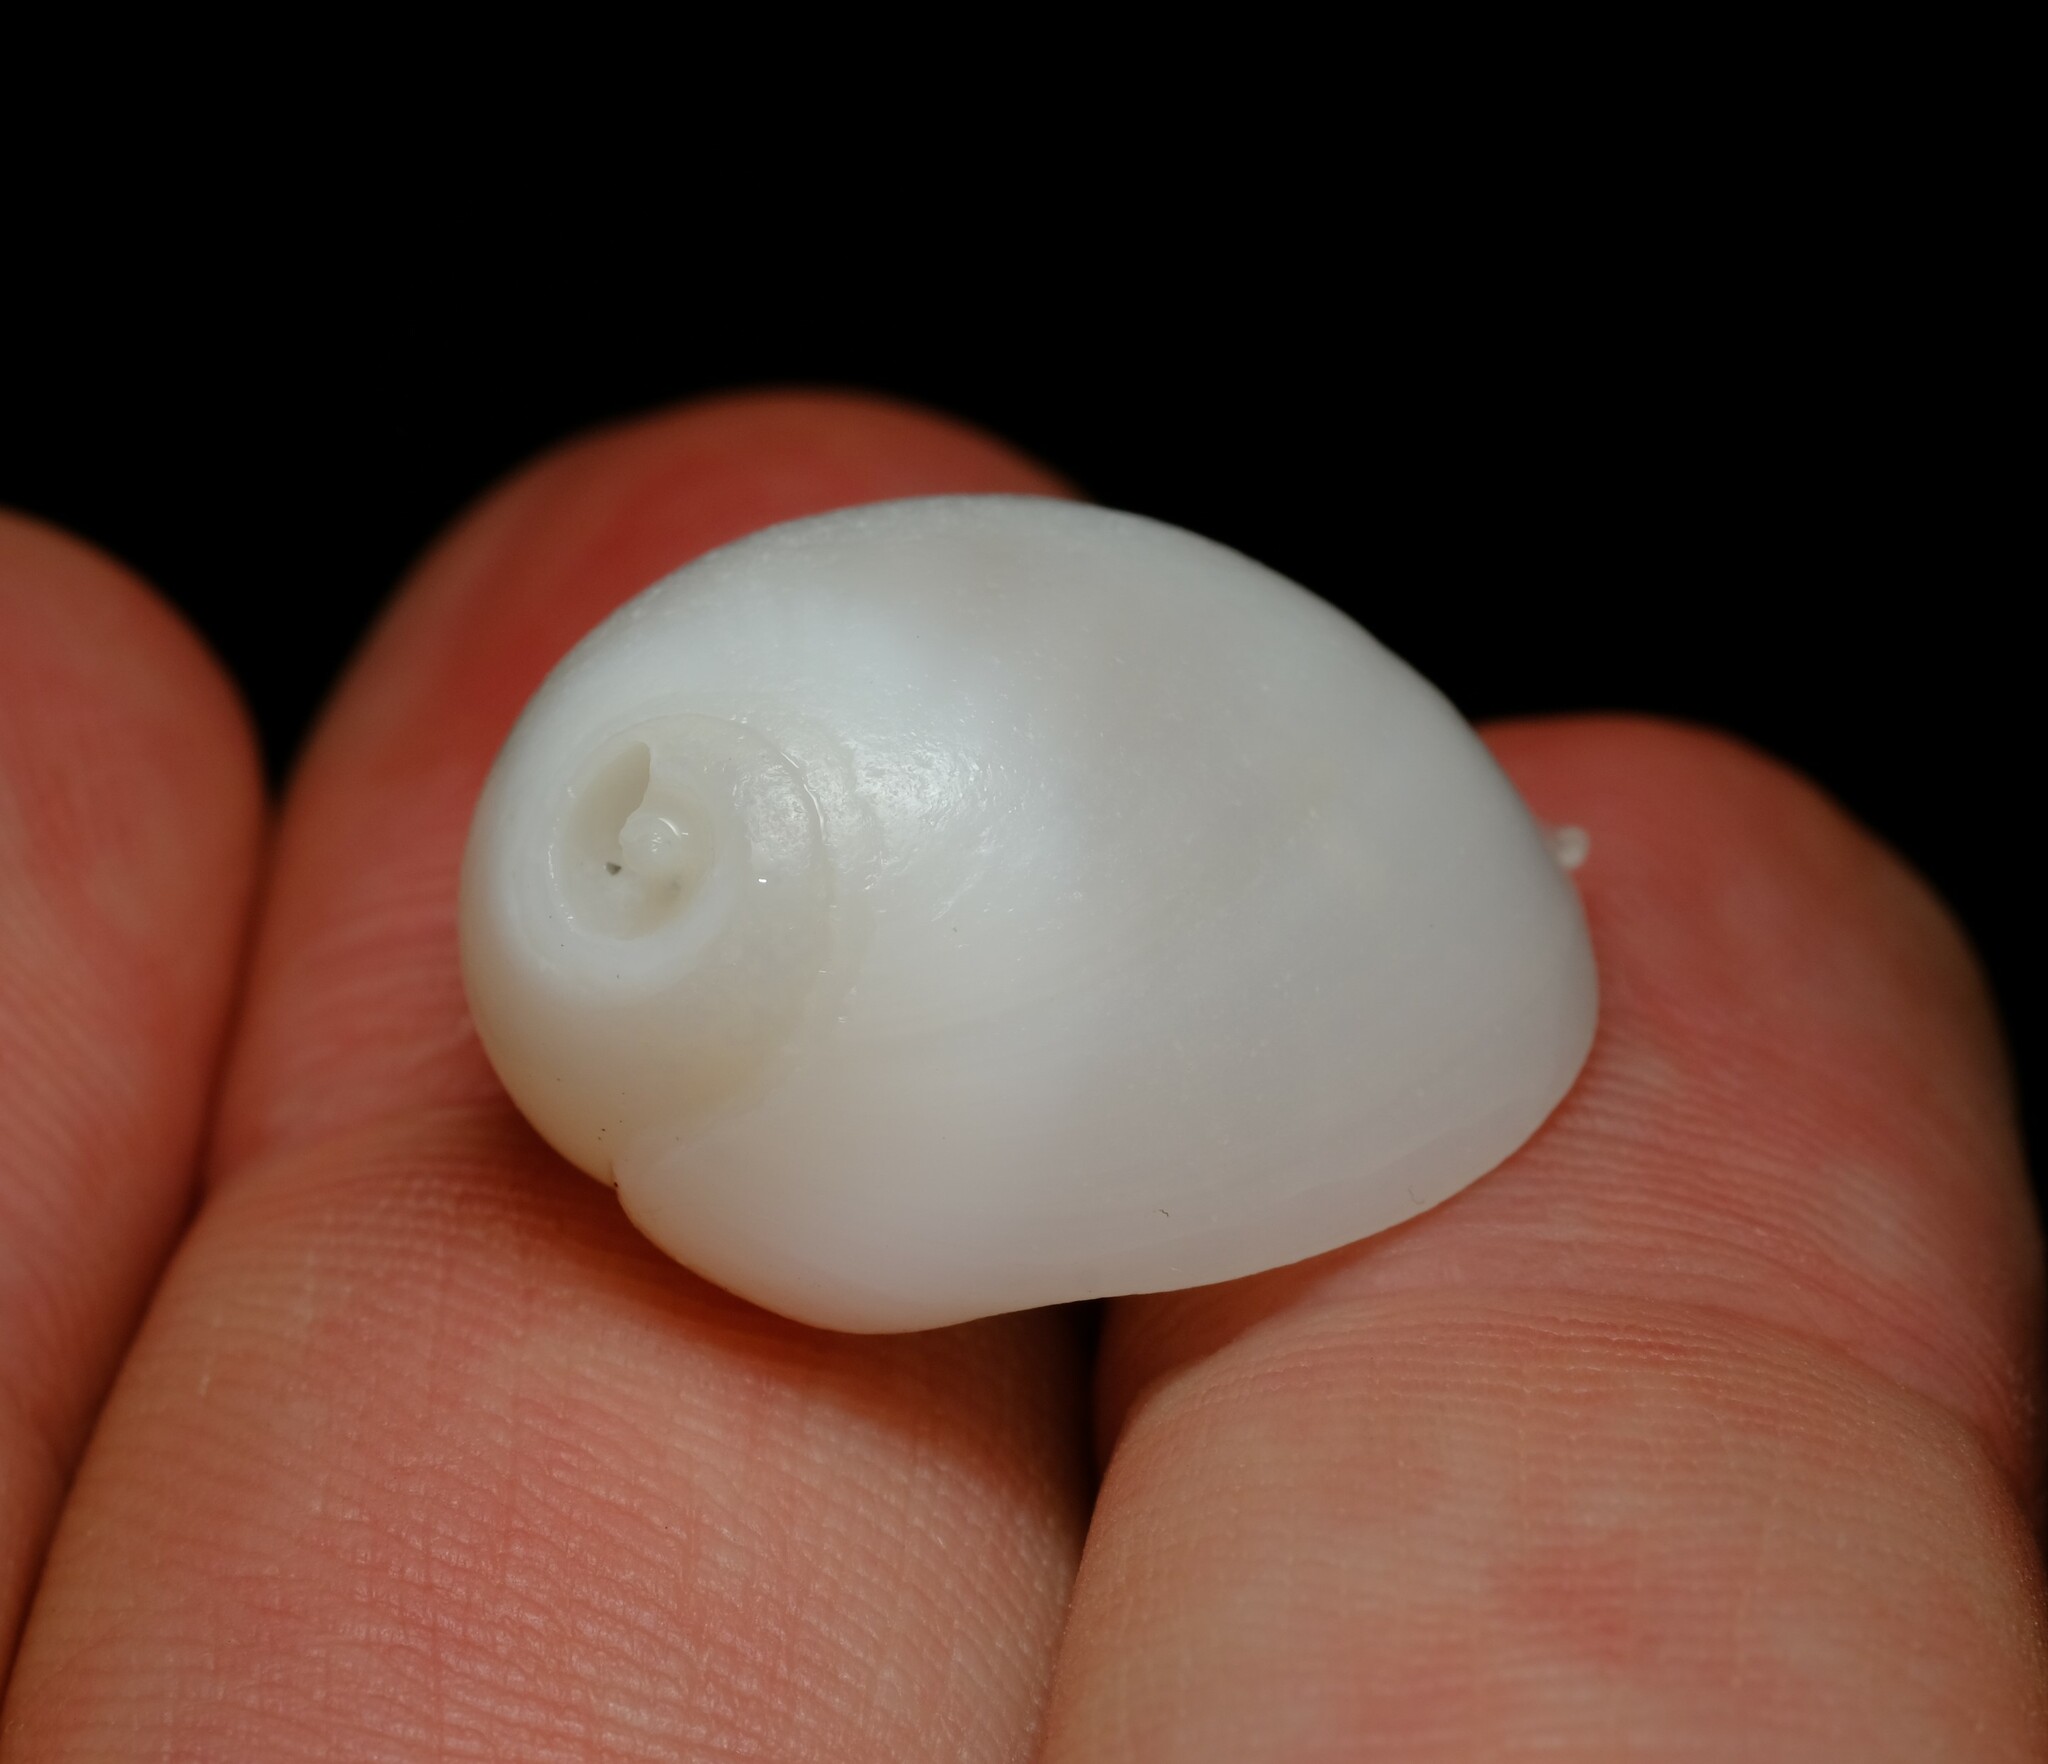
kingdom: Animalia
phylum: Mollusca
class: Gastropoda
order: Littorinimorpha
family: Naticidae
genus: Polinices
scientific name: Polinices mammilla
